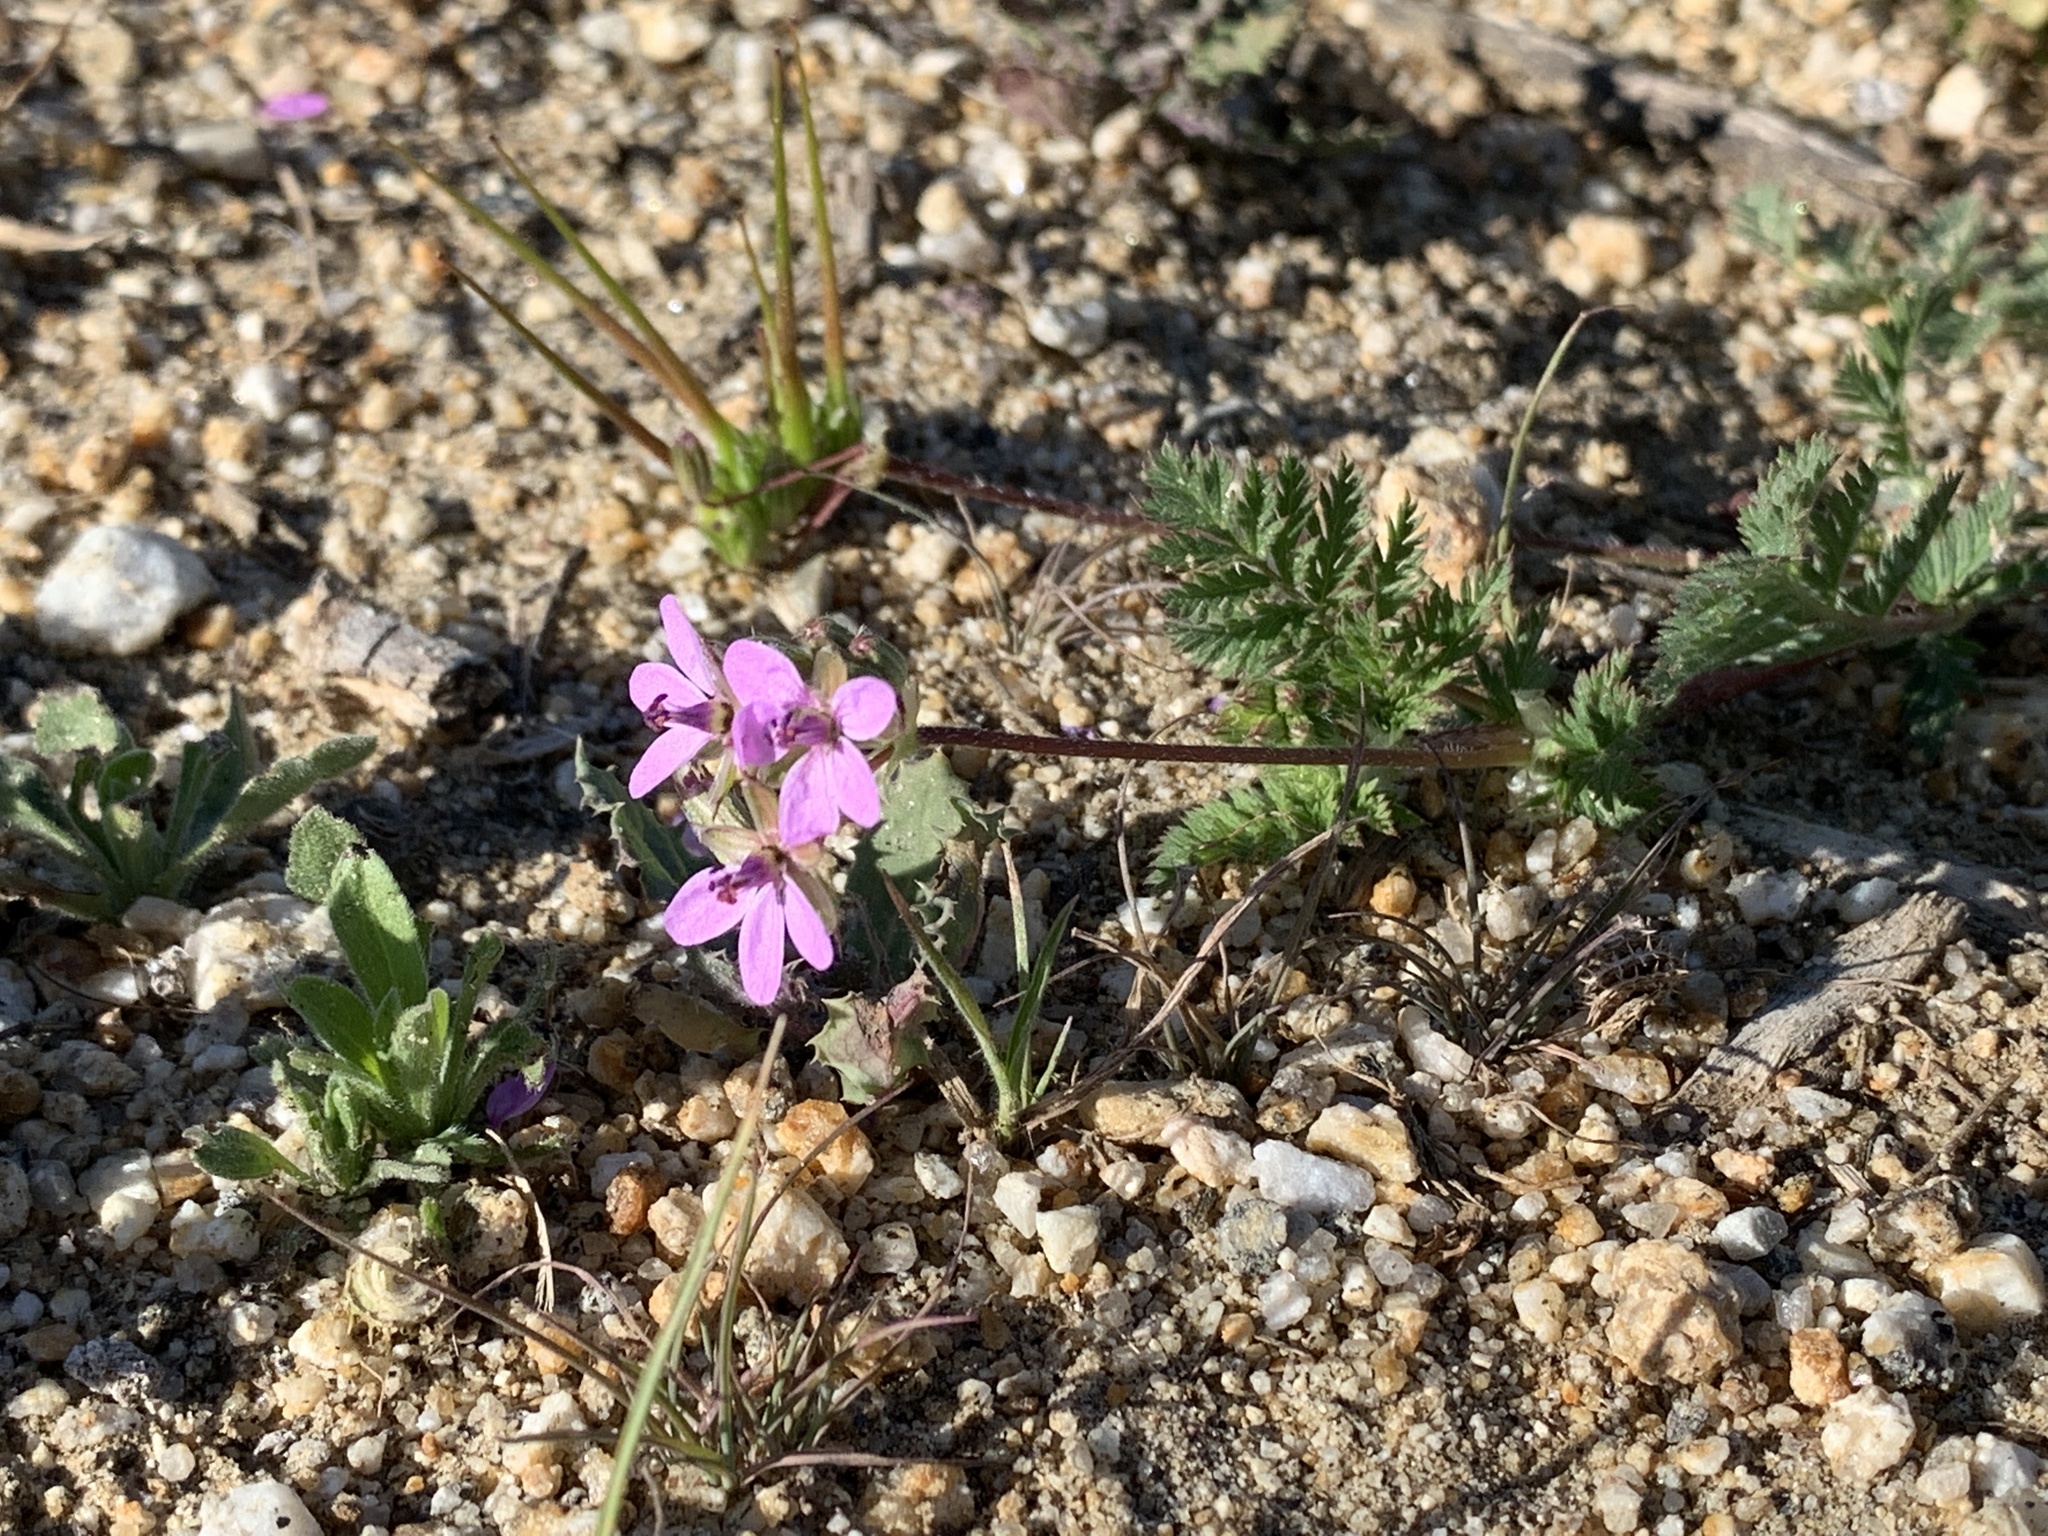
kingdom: Plantae
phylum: Tracheophyta
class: Magnoliopsida
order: Geraniales
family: Geraniaceae
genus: Erodium
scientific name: Erodium cicutarium
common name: Common stork's-bill
